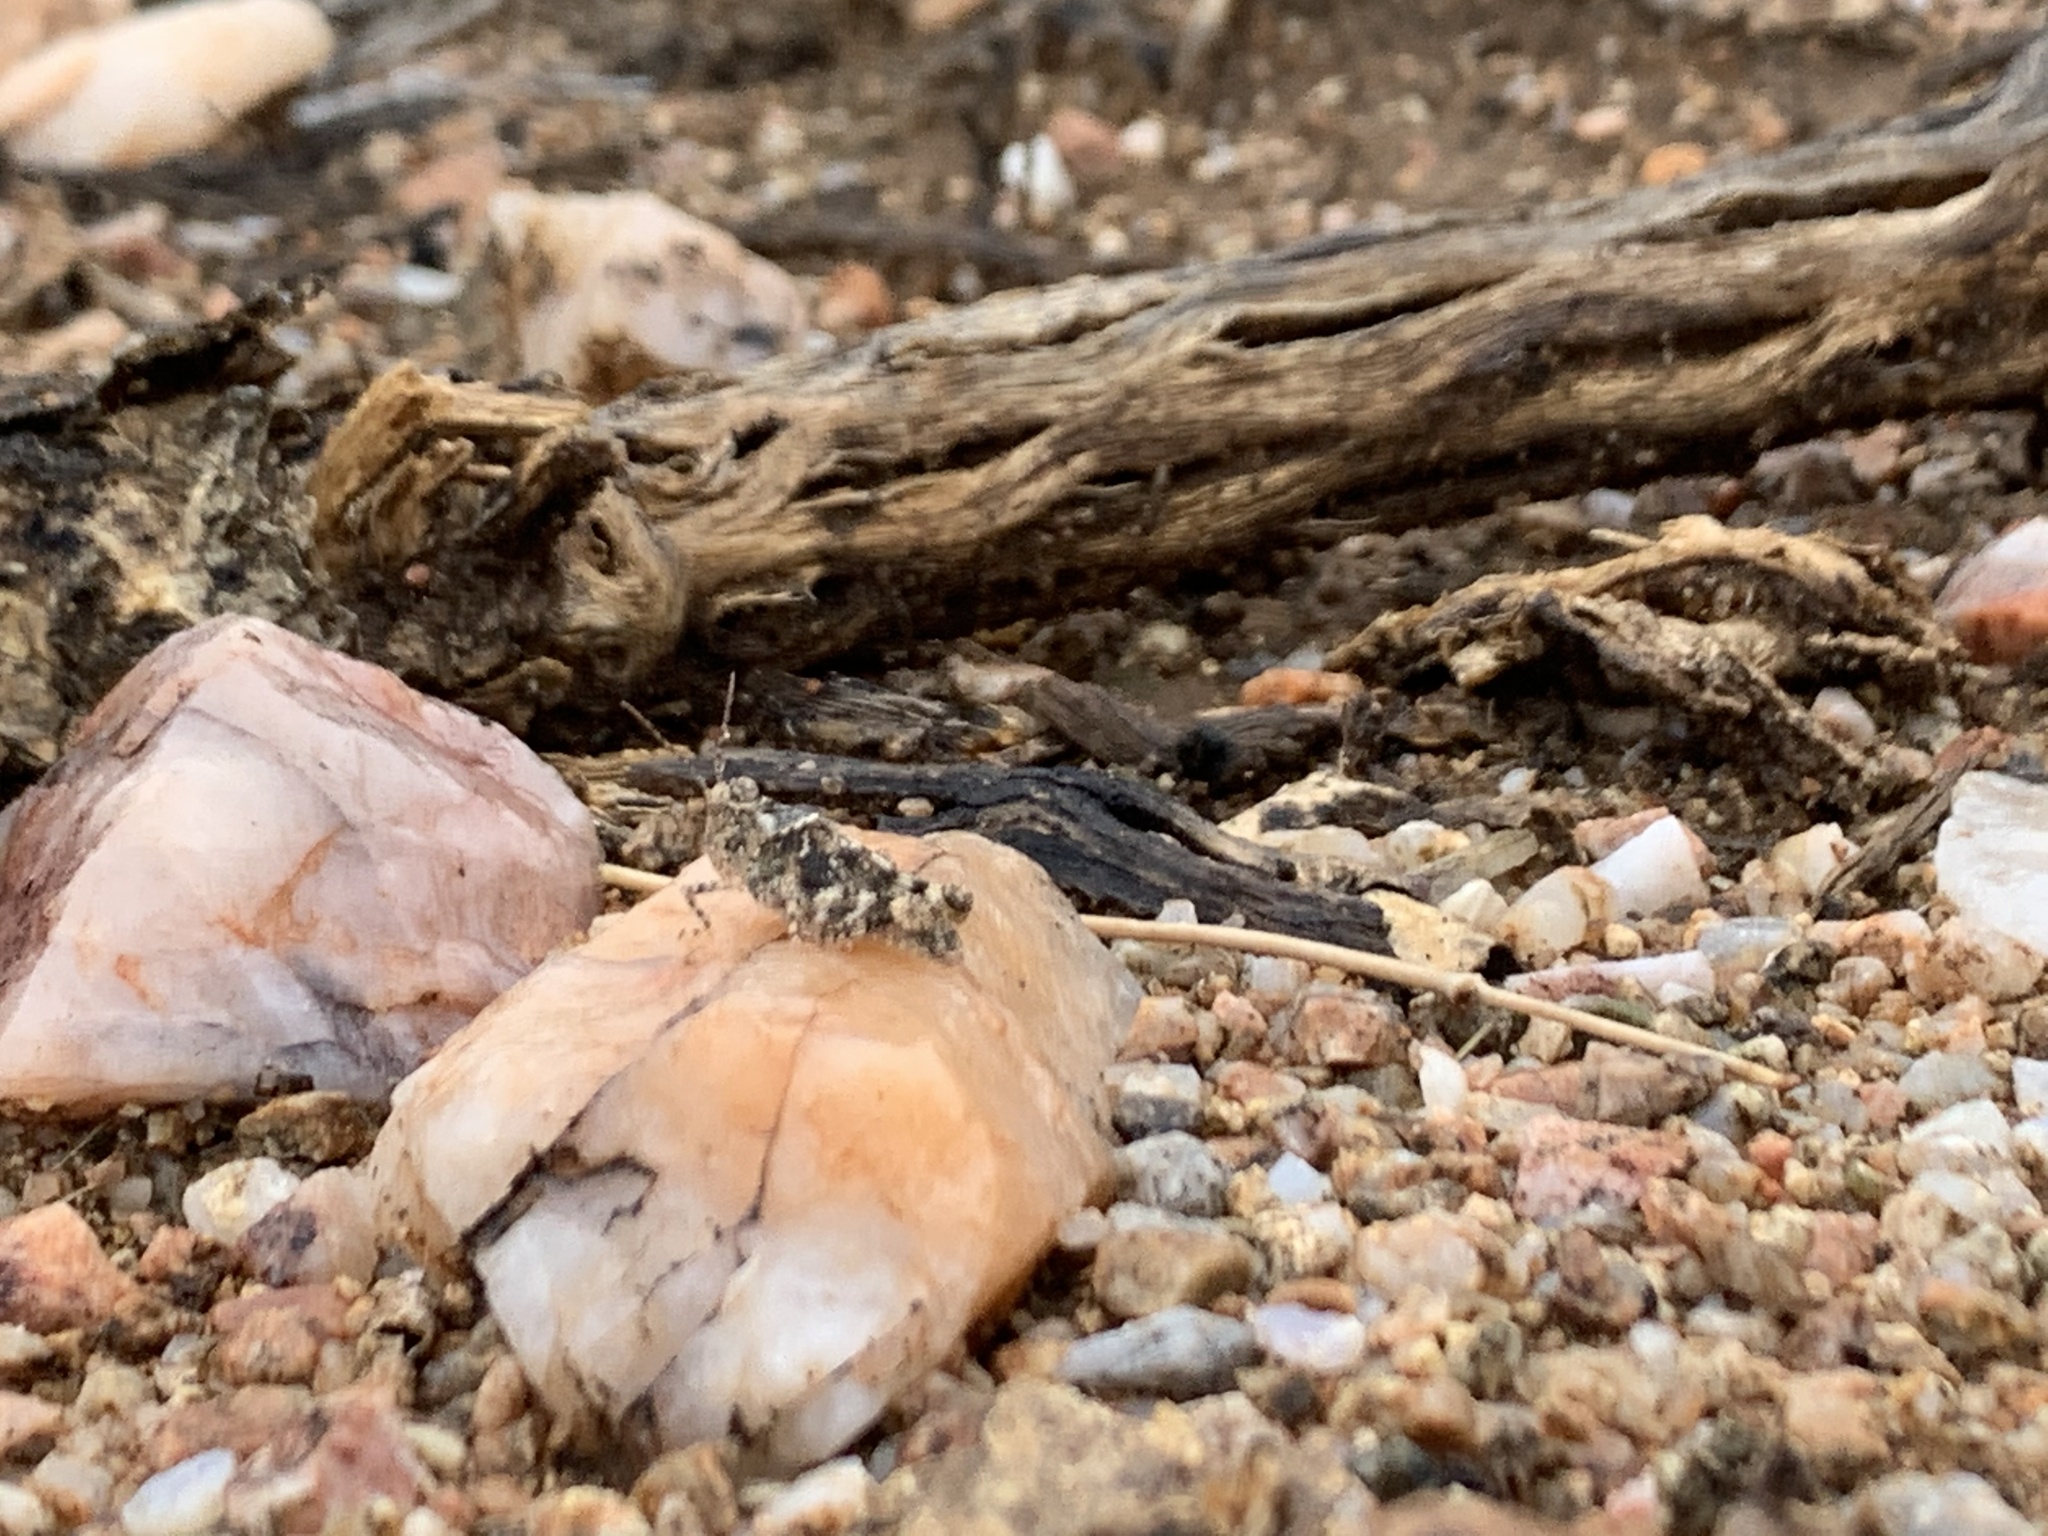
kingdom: Animalia
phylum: Arthropoda
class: Insecta
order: Orthoptera
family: Tetrigidae
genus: Paratettix
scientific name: Paratettix mexicanus
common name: Mexican pygmy grasshopper
